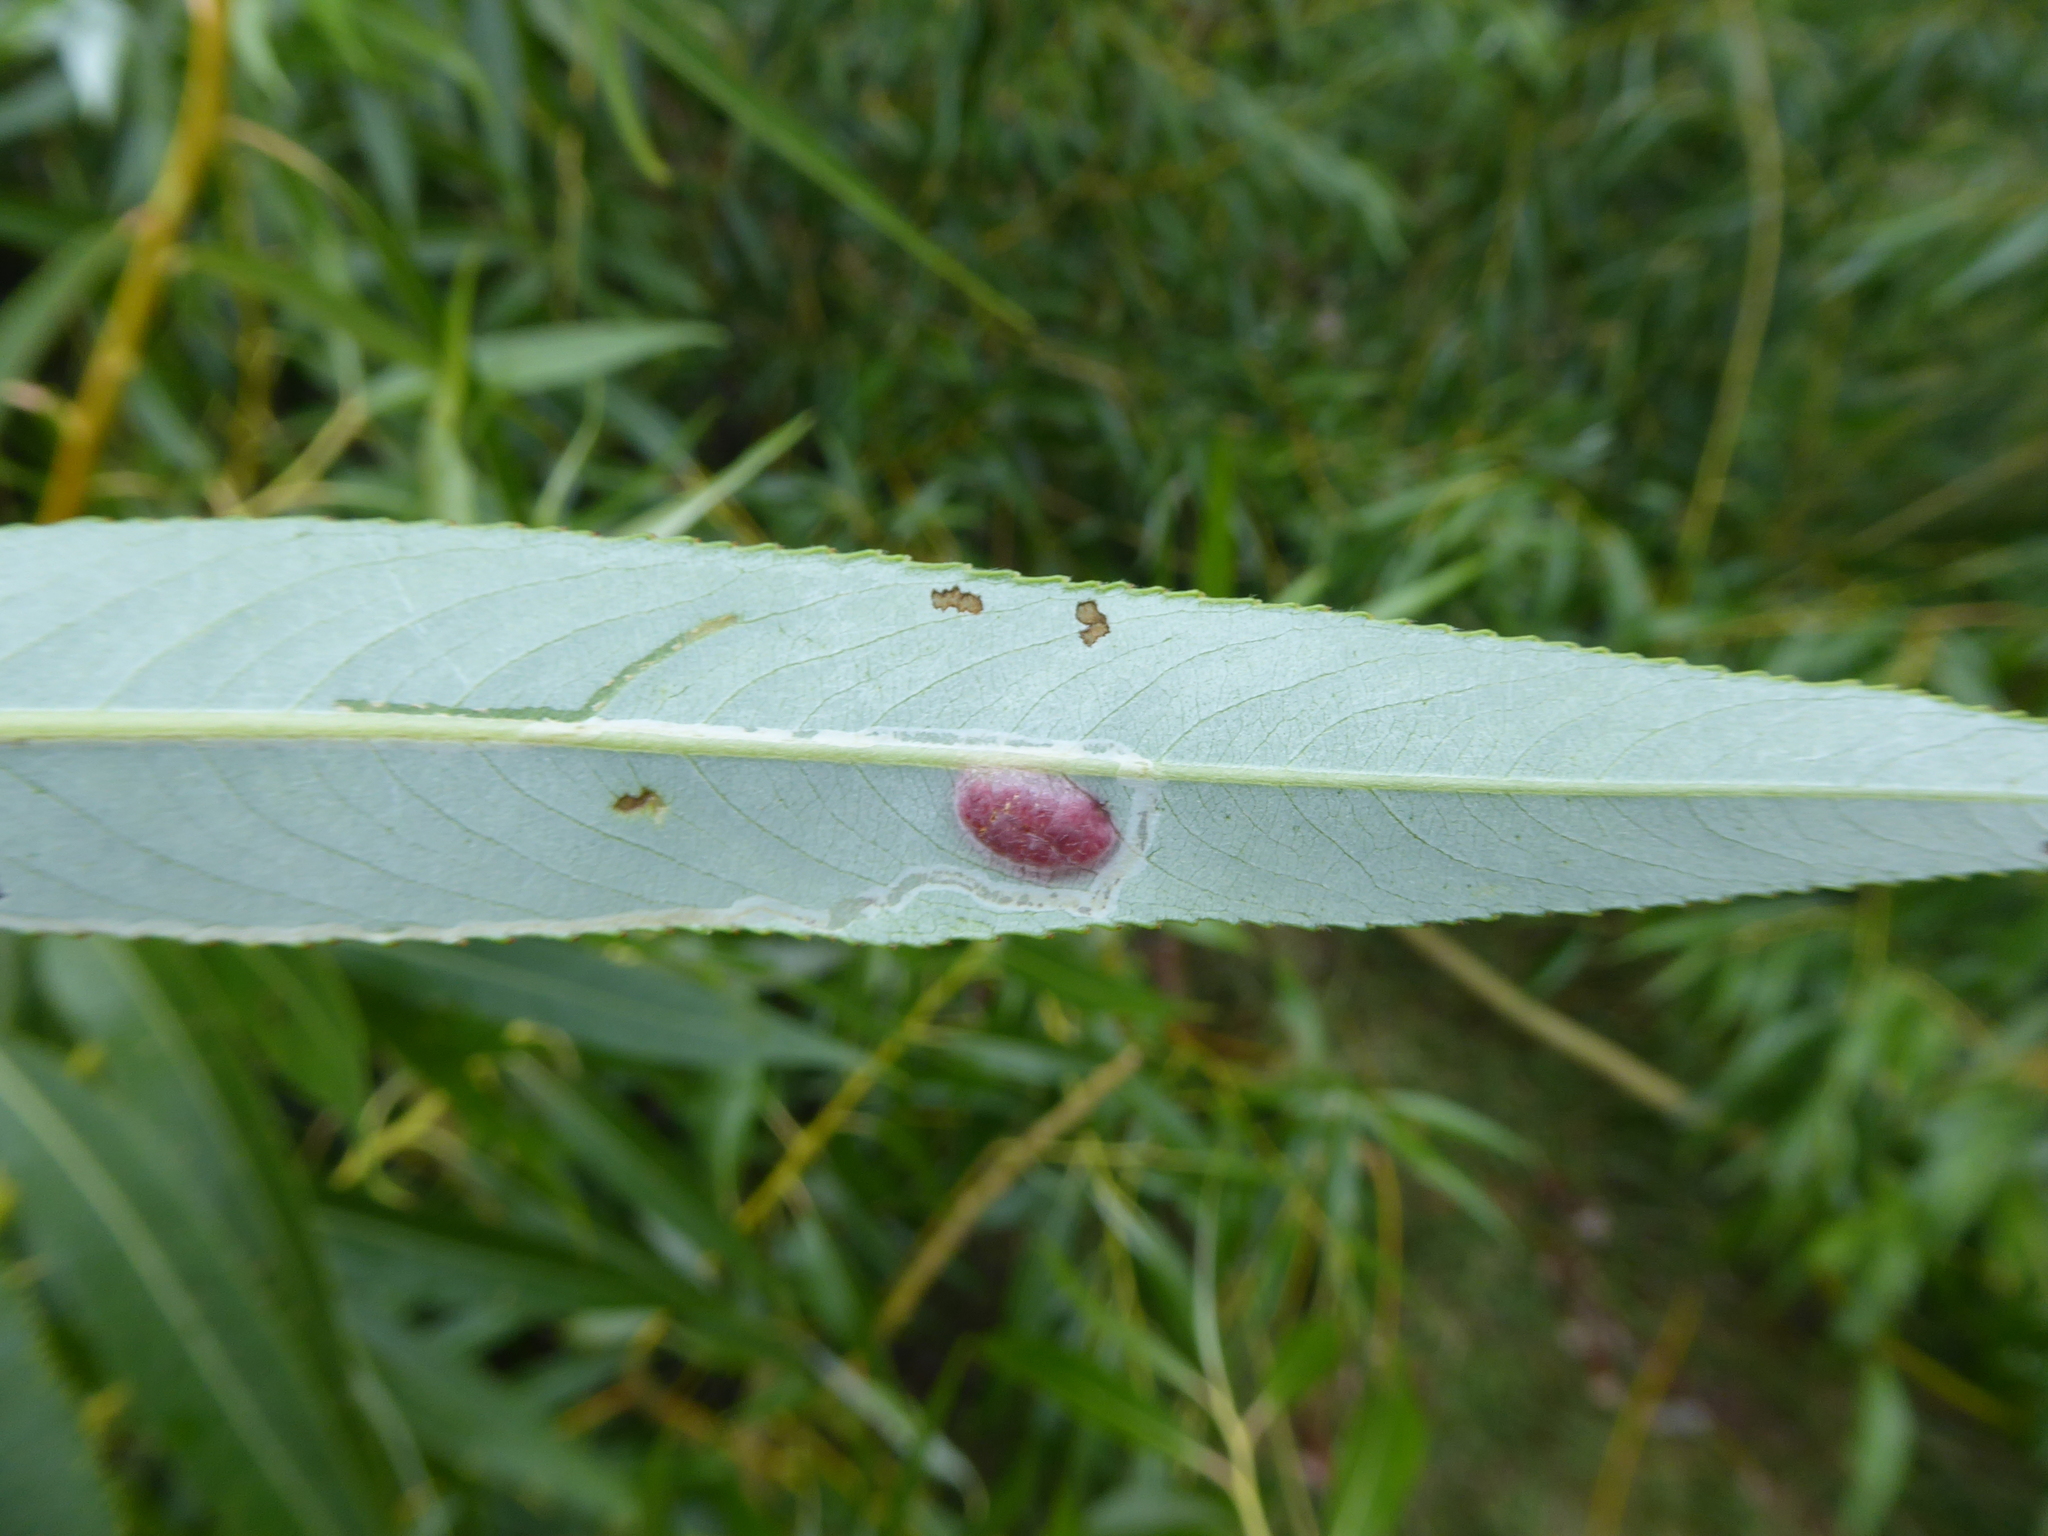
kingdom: Animalia
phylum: Arthropoda
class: Insecta
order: Hymenoptera
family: Tenthredinidae
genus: Pontania
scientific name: Pontania proxima
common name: Common sawfly
